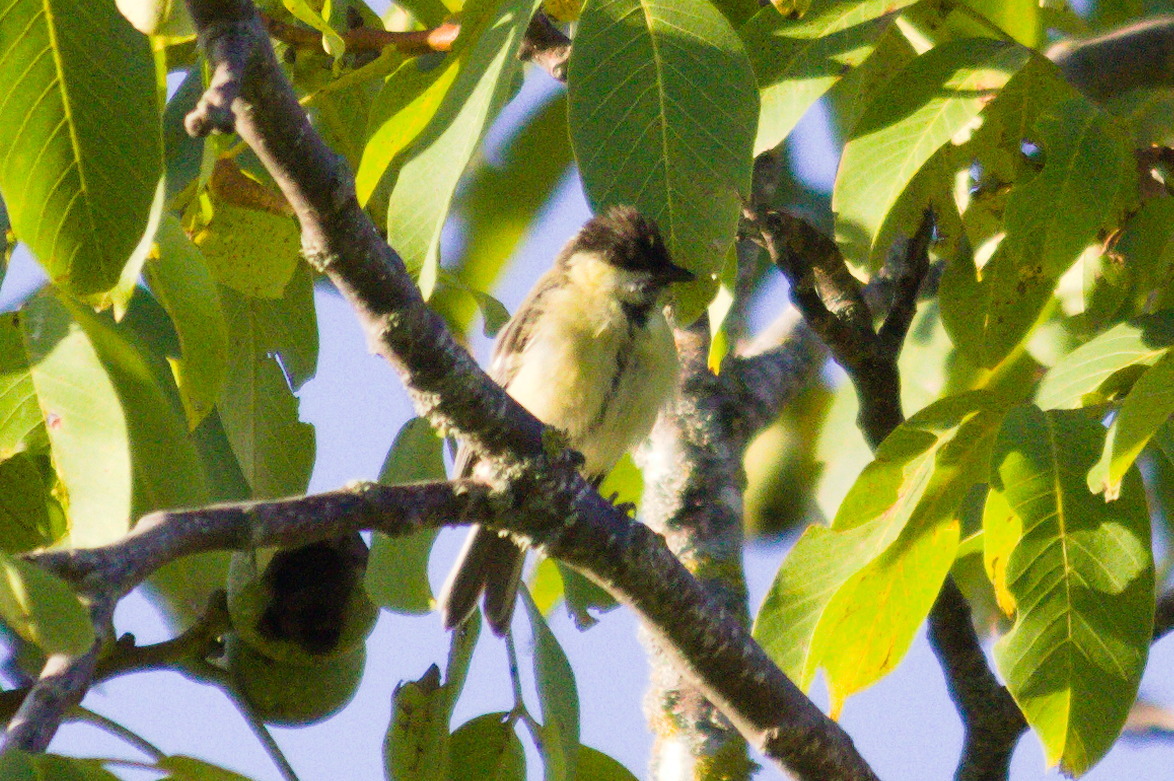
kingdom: Animalia
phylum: Chordata
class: Aves
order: Passeriformes
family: Paridae
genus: Parus
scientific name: Parus major
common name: Great tit
